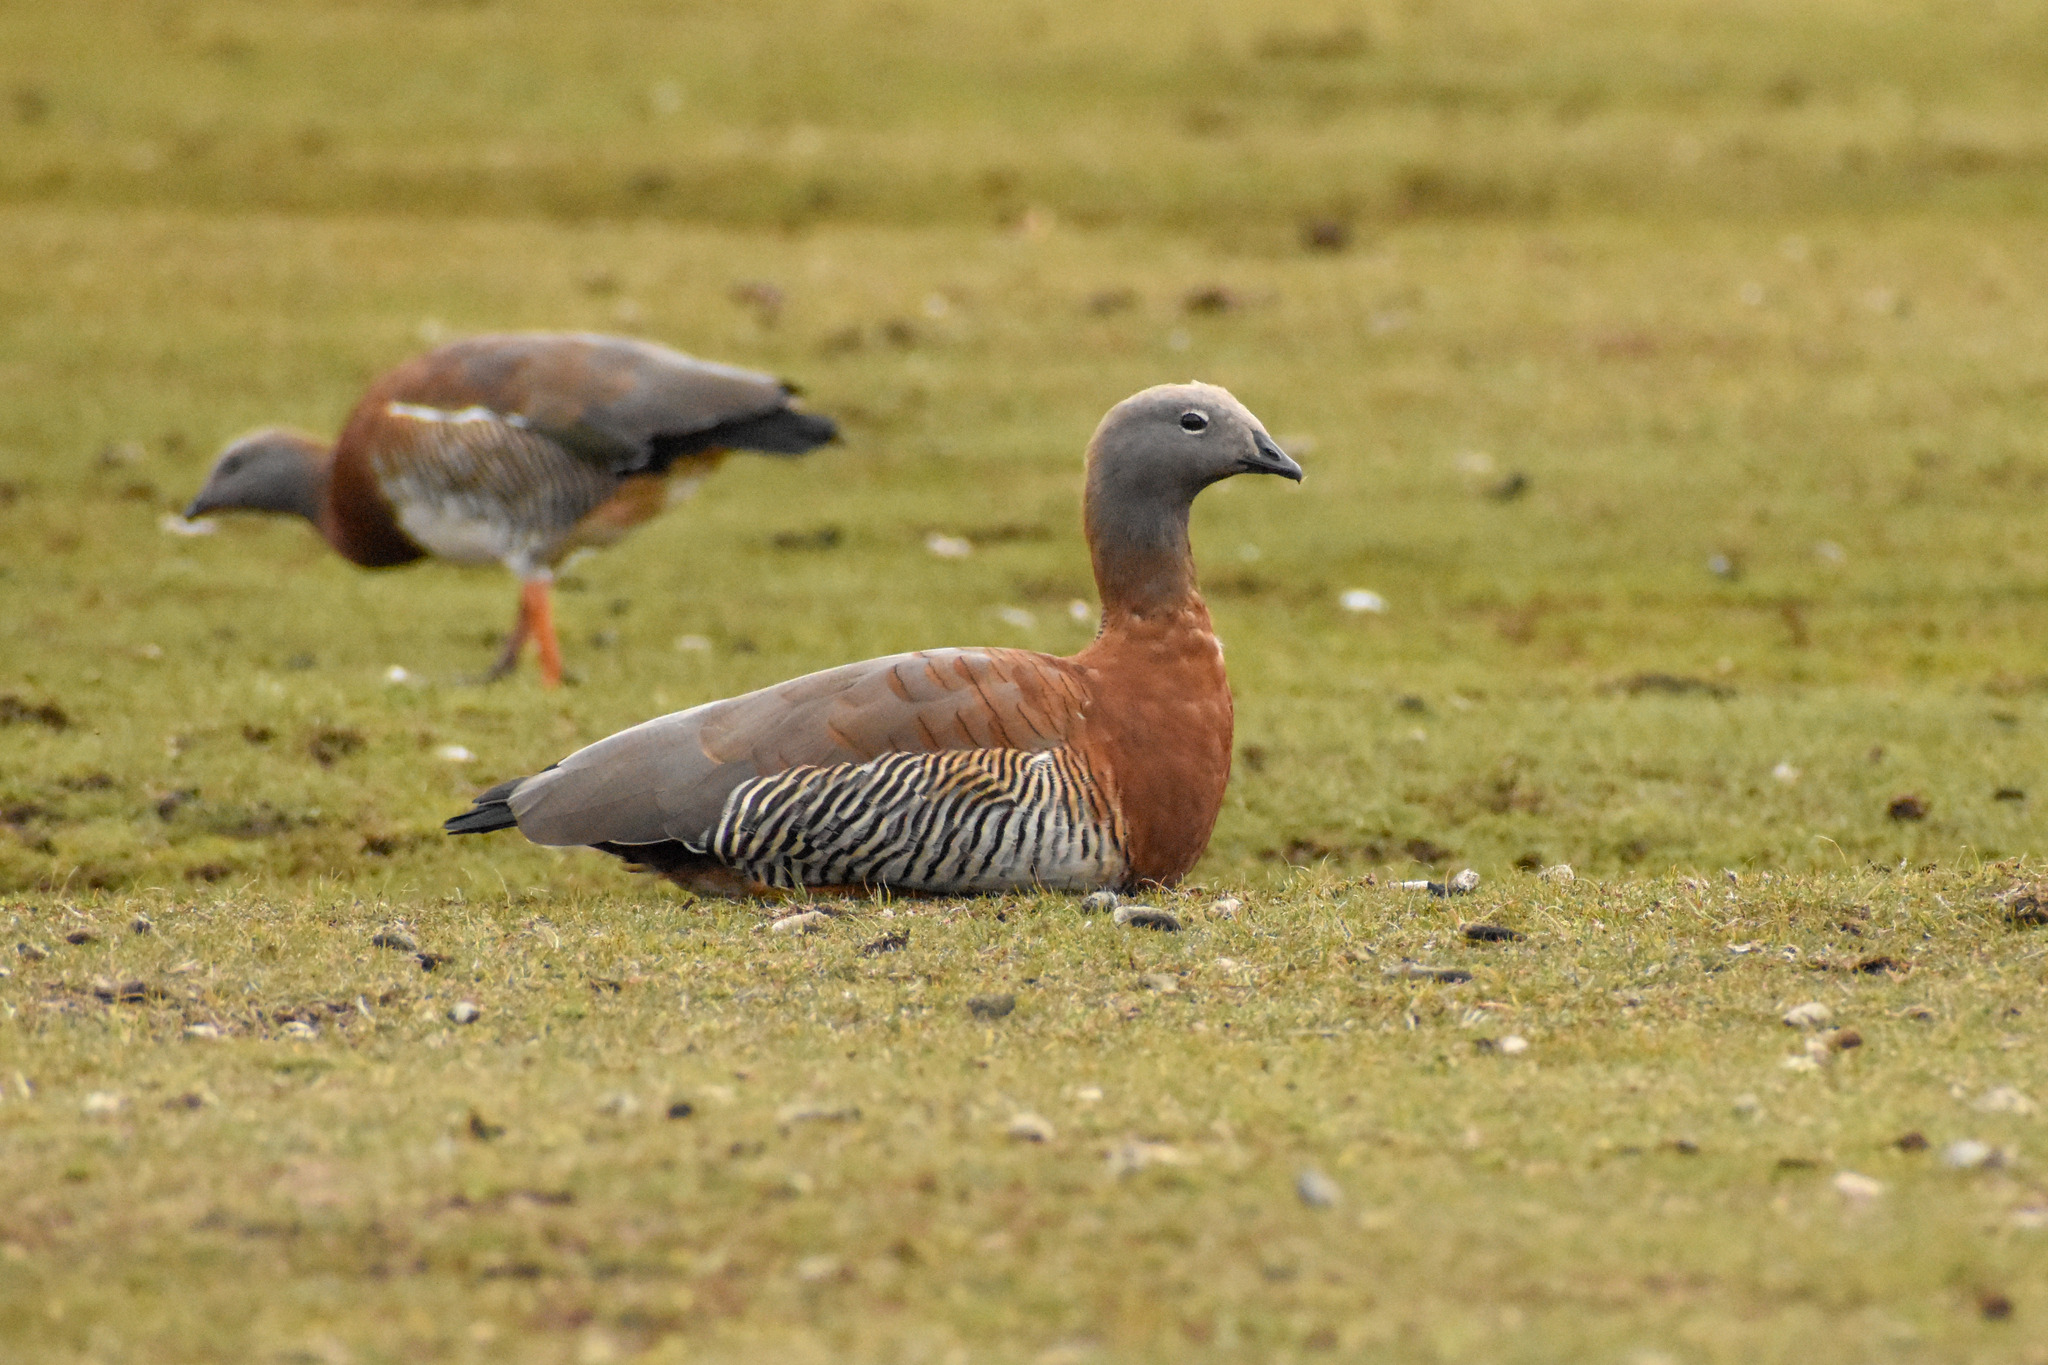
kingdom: Animalia
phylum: Chordata
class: Aves
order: Anseriformes
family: Anatidae
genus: Chloephaga
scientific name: Chloephaga poliocephala
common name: Ashy-headed goose
